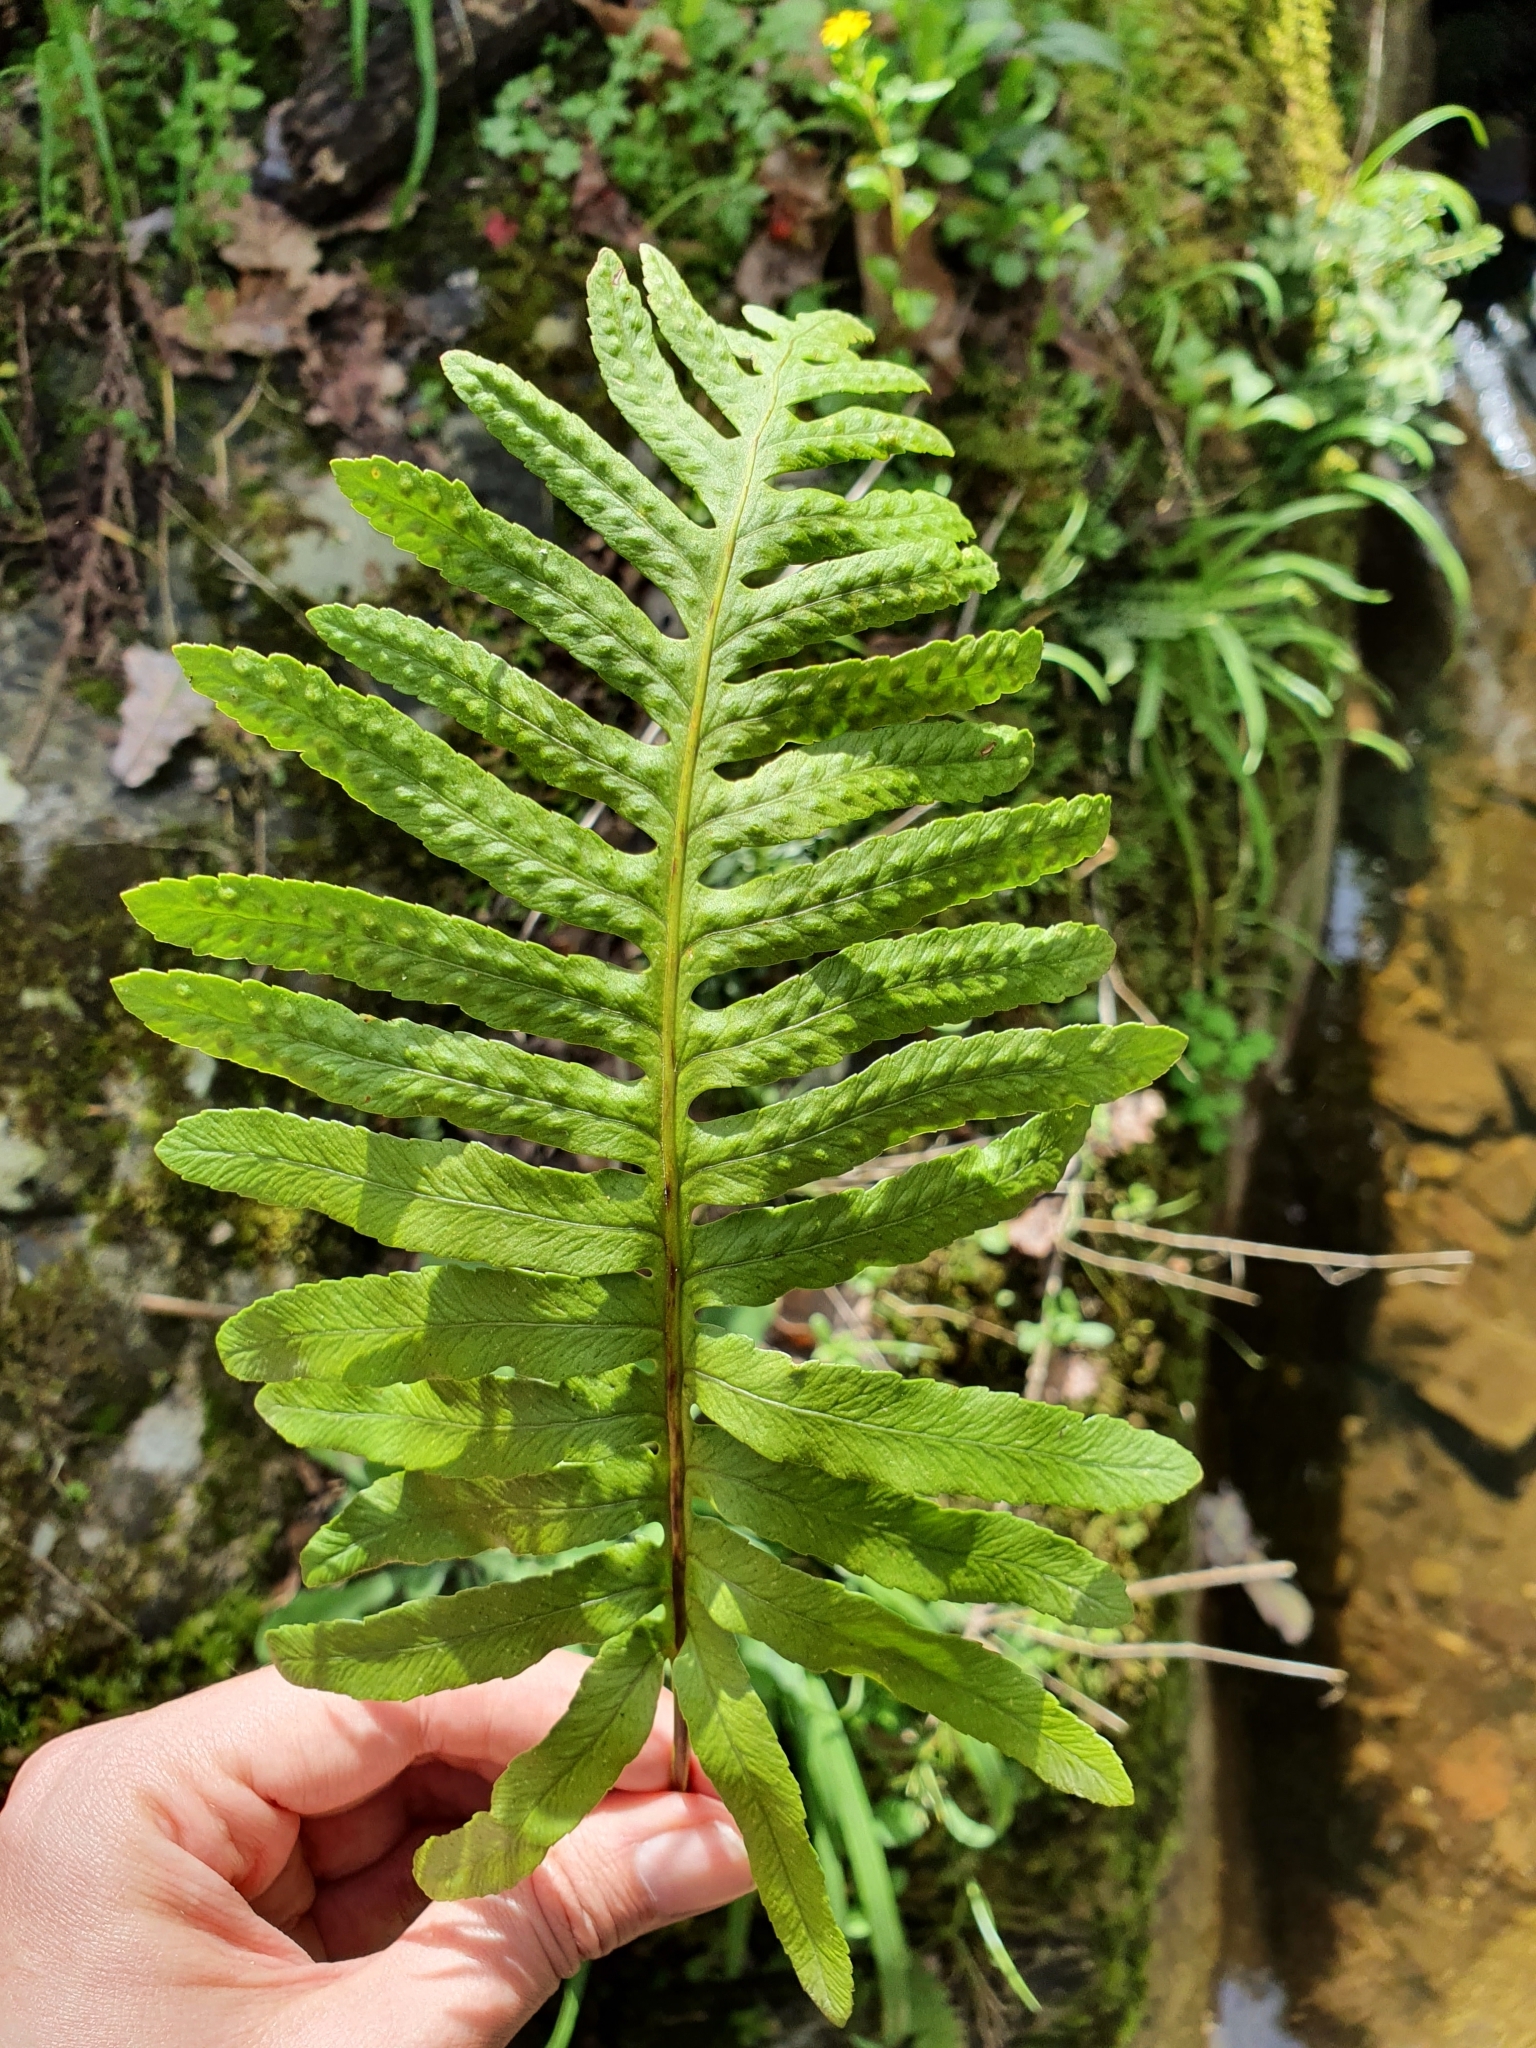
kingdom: Plantae
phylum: Tracheophyta
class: Polypodiopsida
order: Polypodiales
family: Polypodiaceae
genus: Polypodium
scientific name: Polypodium cambricum
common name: Southern polypody
